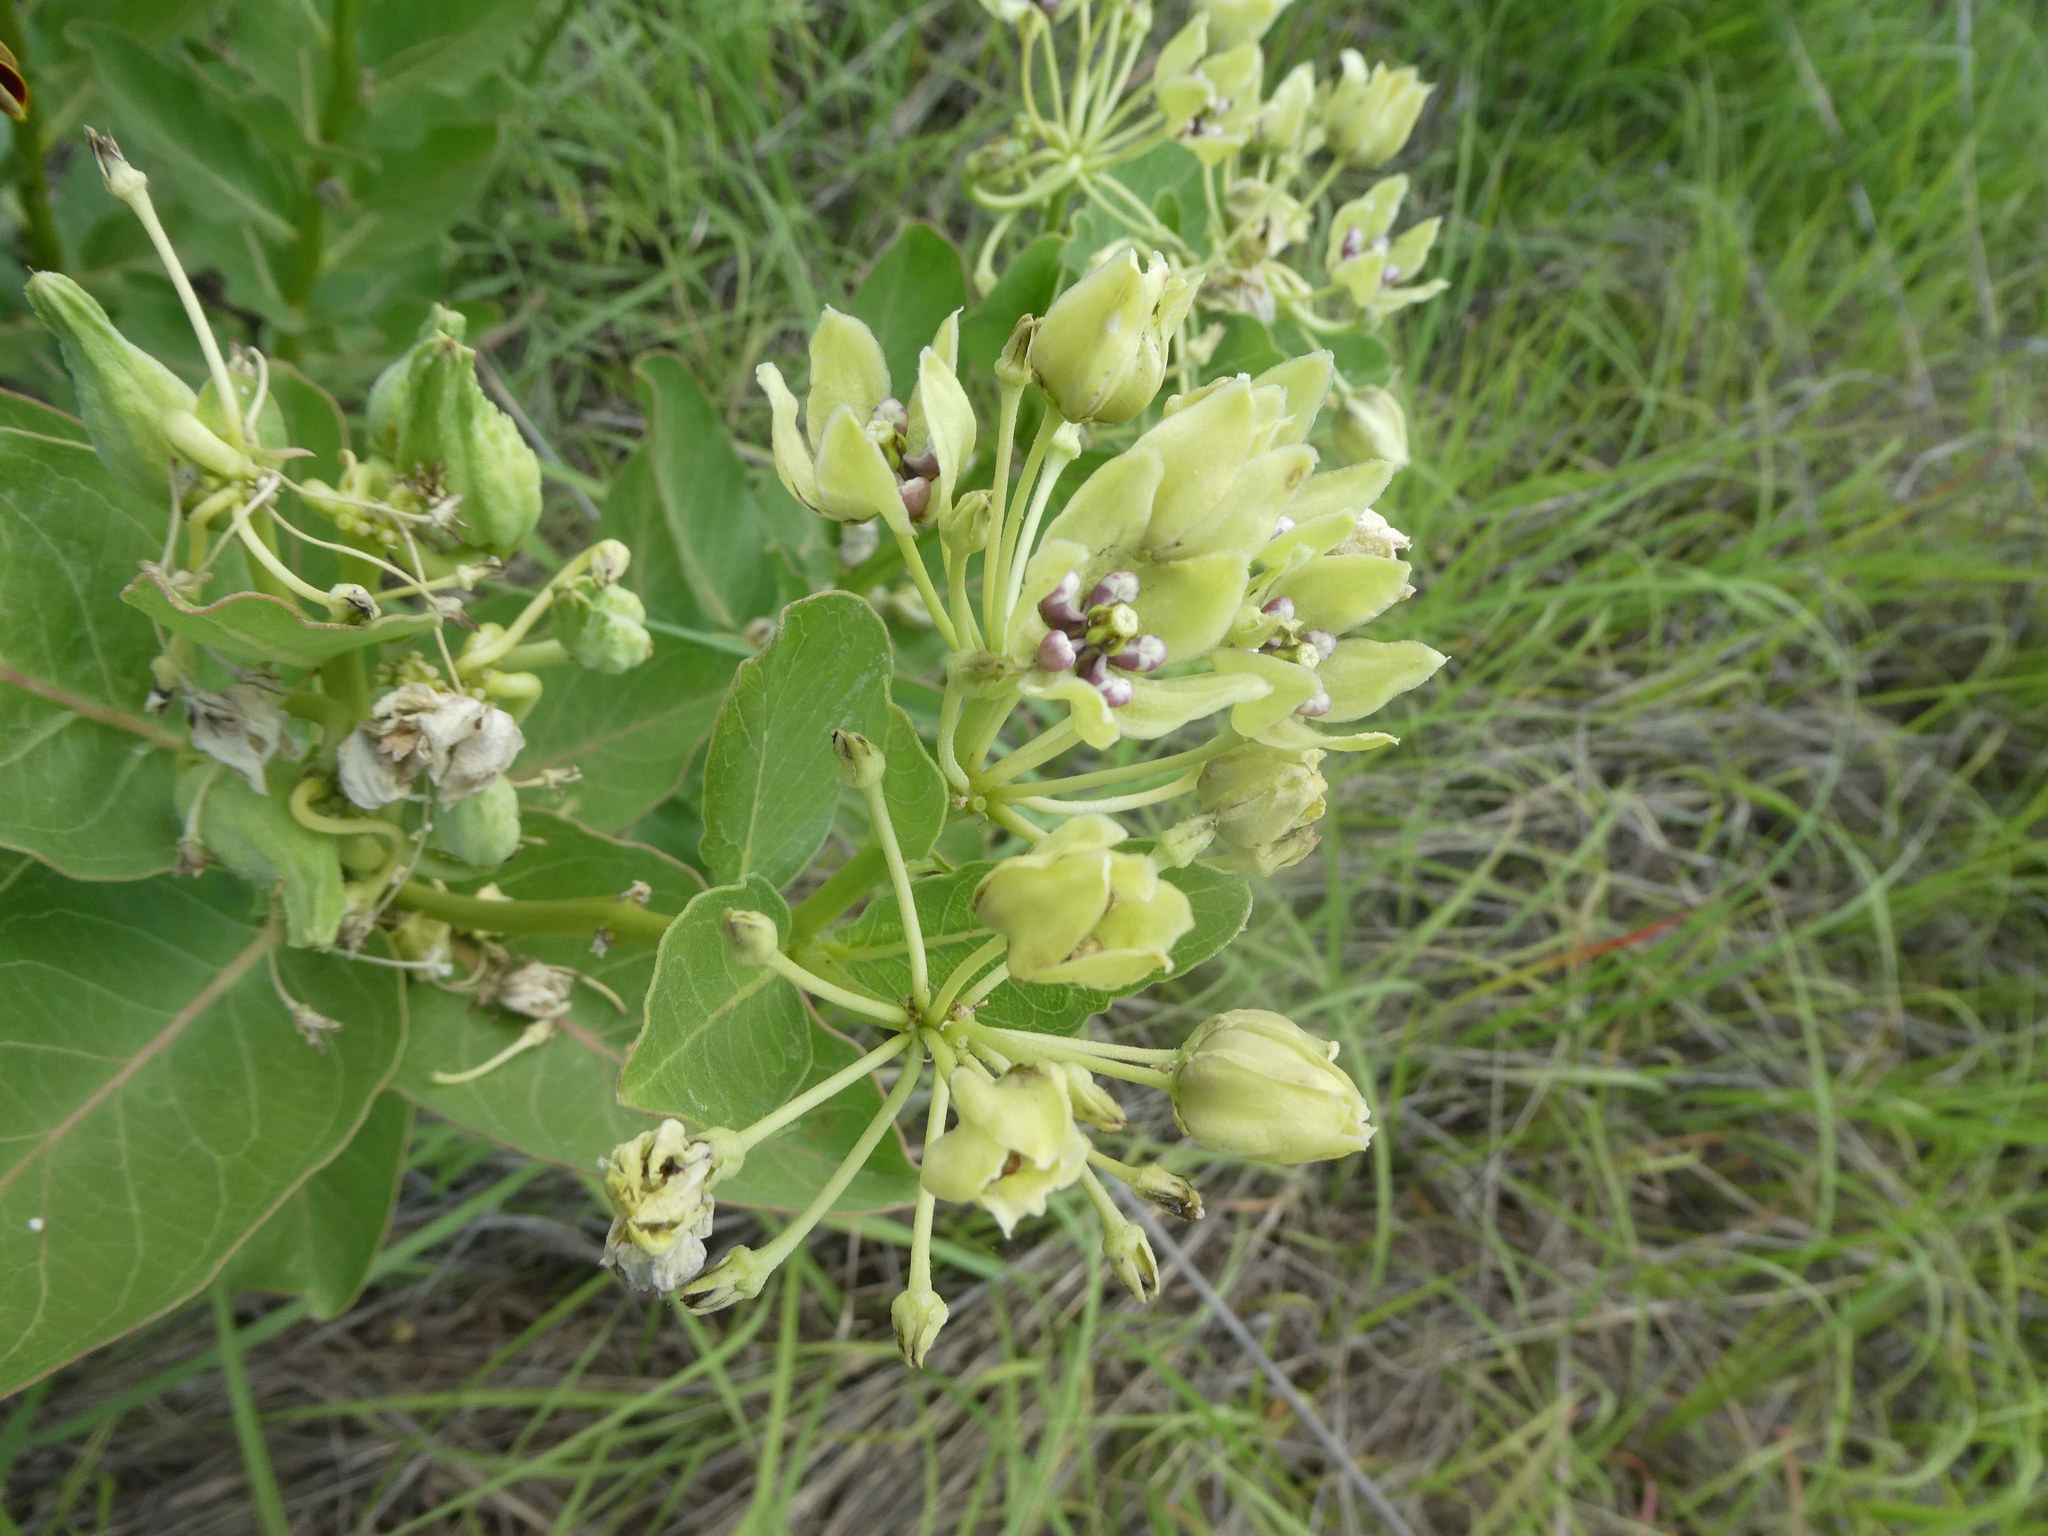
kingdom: Plantae
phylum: Tracheophyta
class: Magnoliopsida
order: Gentianales
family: Apocynaceae
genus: Asclepias
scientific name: Asclepias viridis
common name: Antelope-horns
